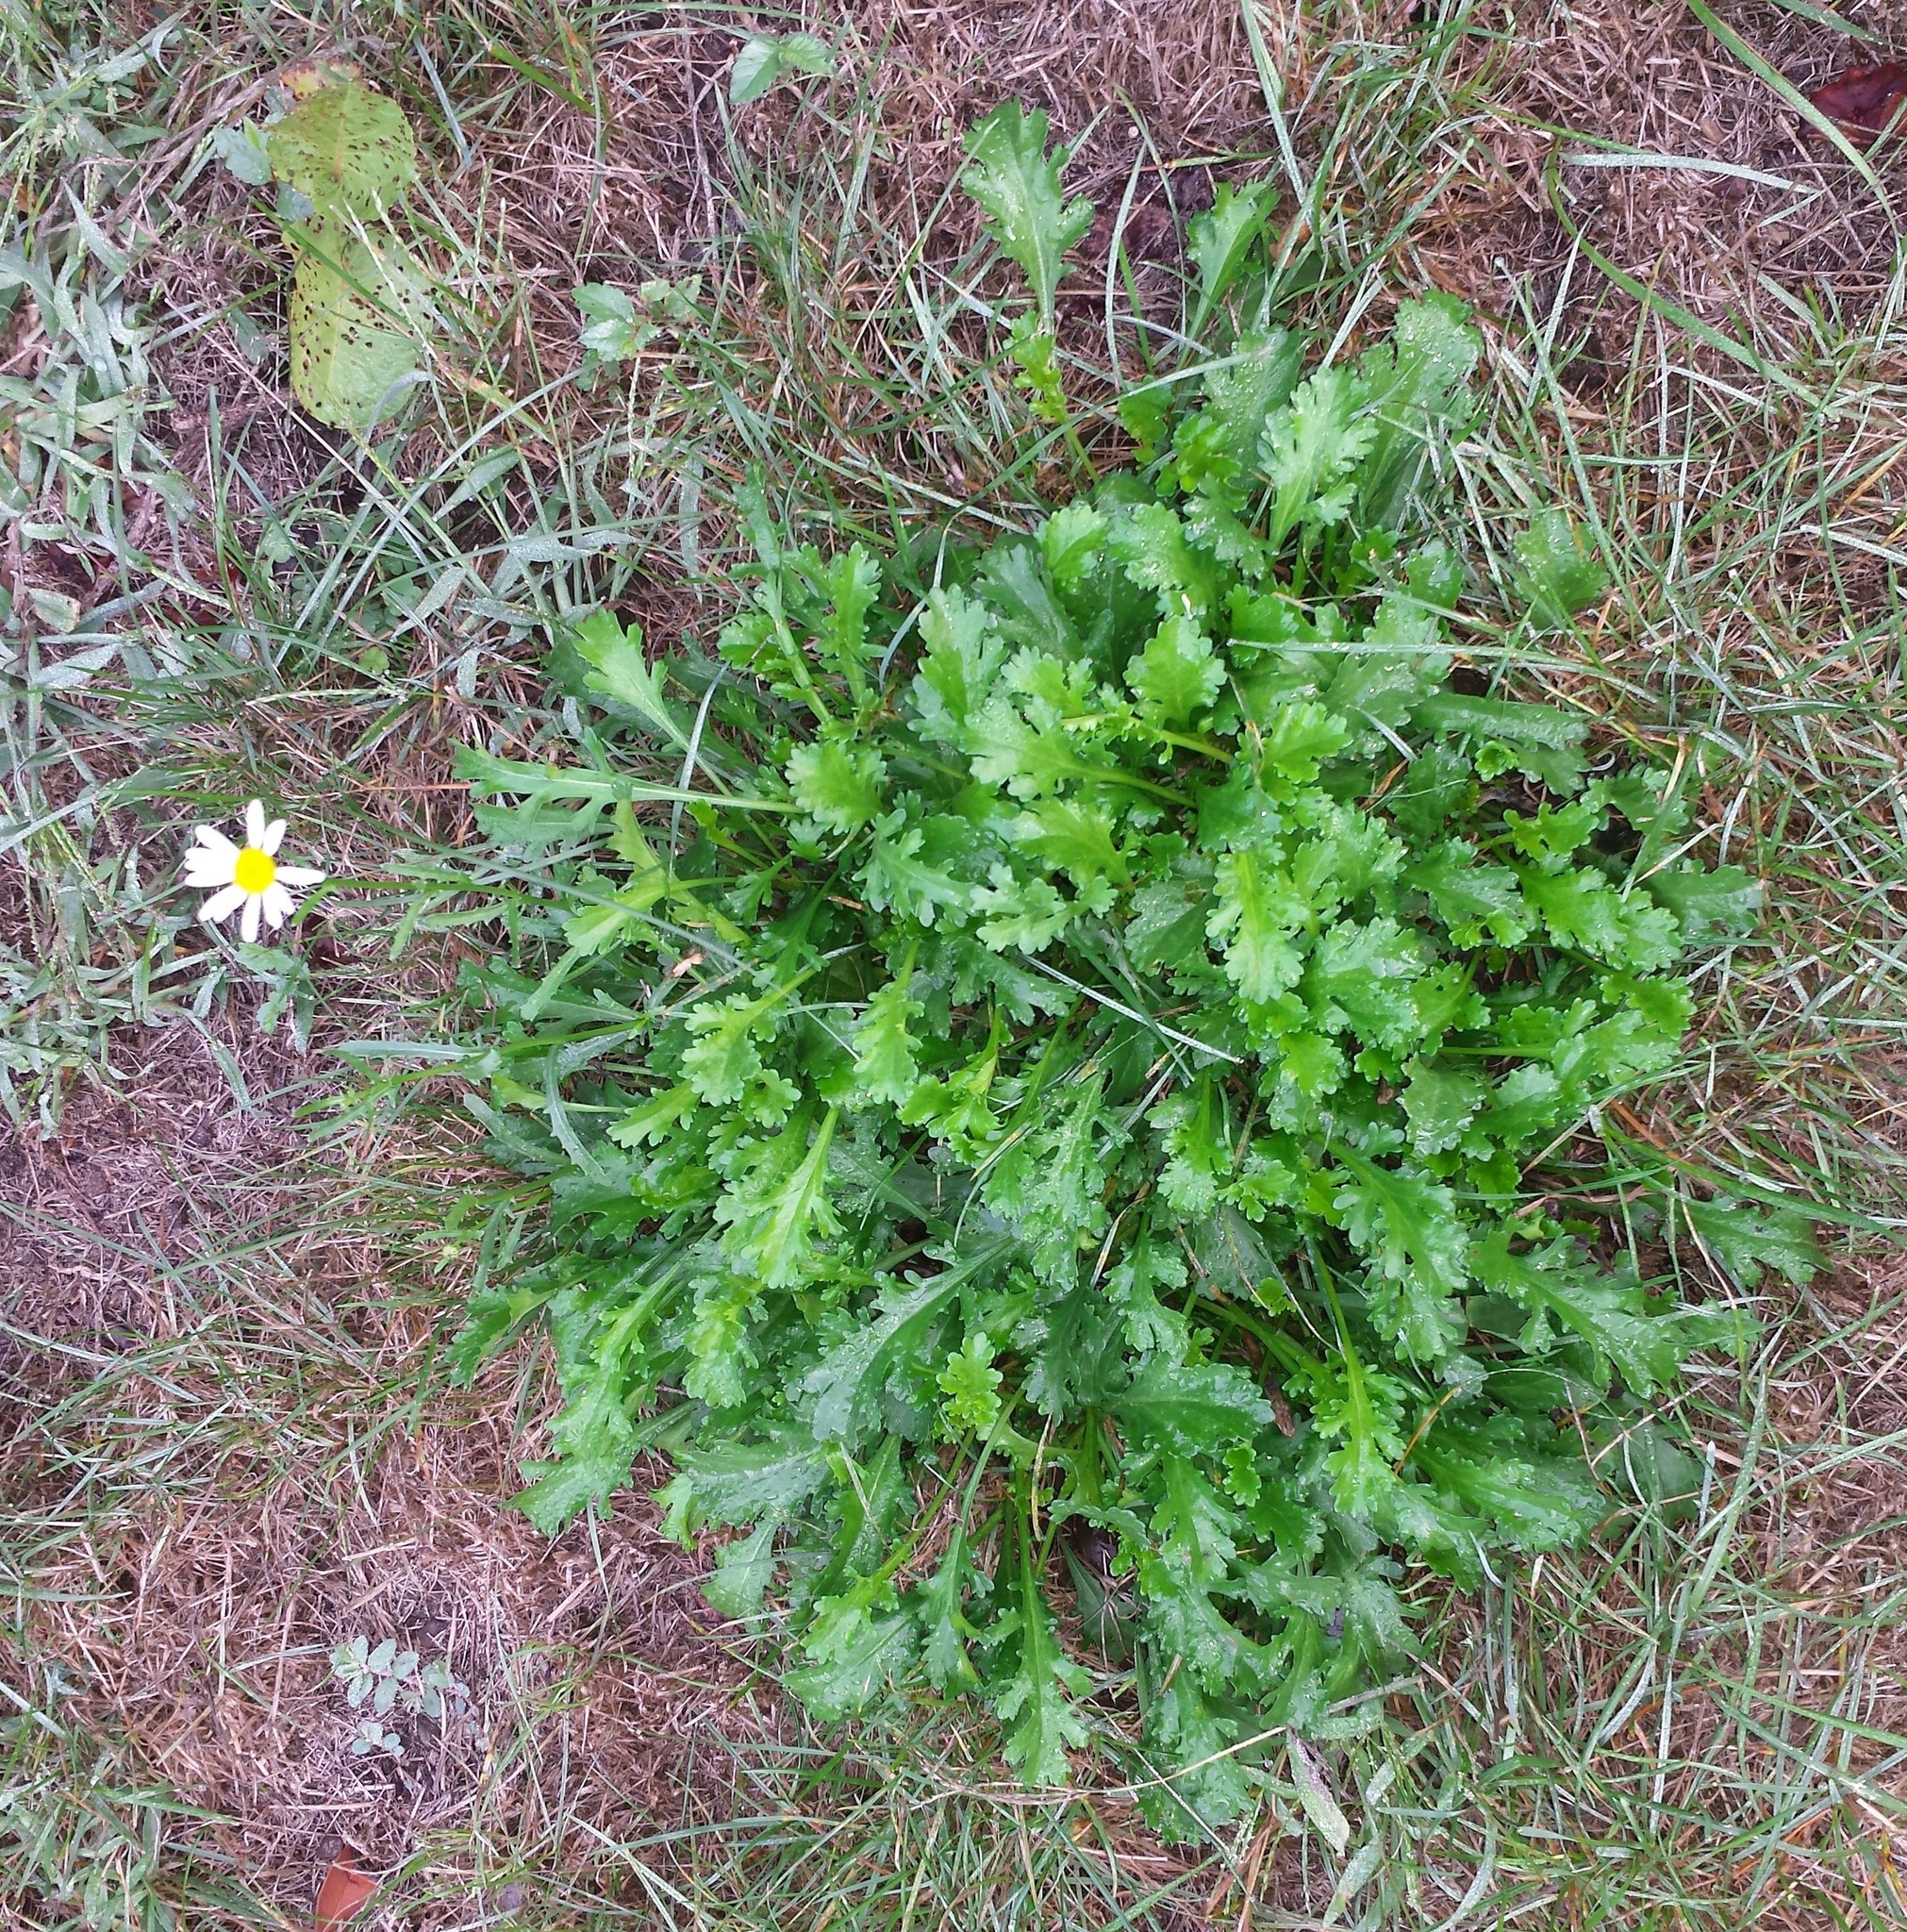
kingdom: Plantae
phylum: Tracheophyta
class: Magnoliopsida
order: Asterales
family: Asteraceae
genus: Leucanthemum
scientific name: Leucanthemum vulgare
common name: Oxeye daisy
